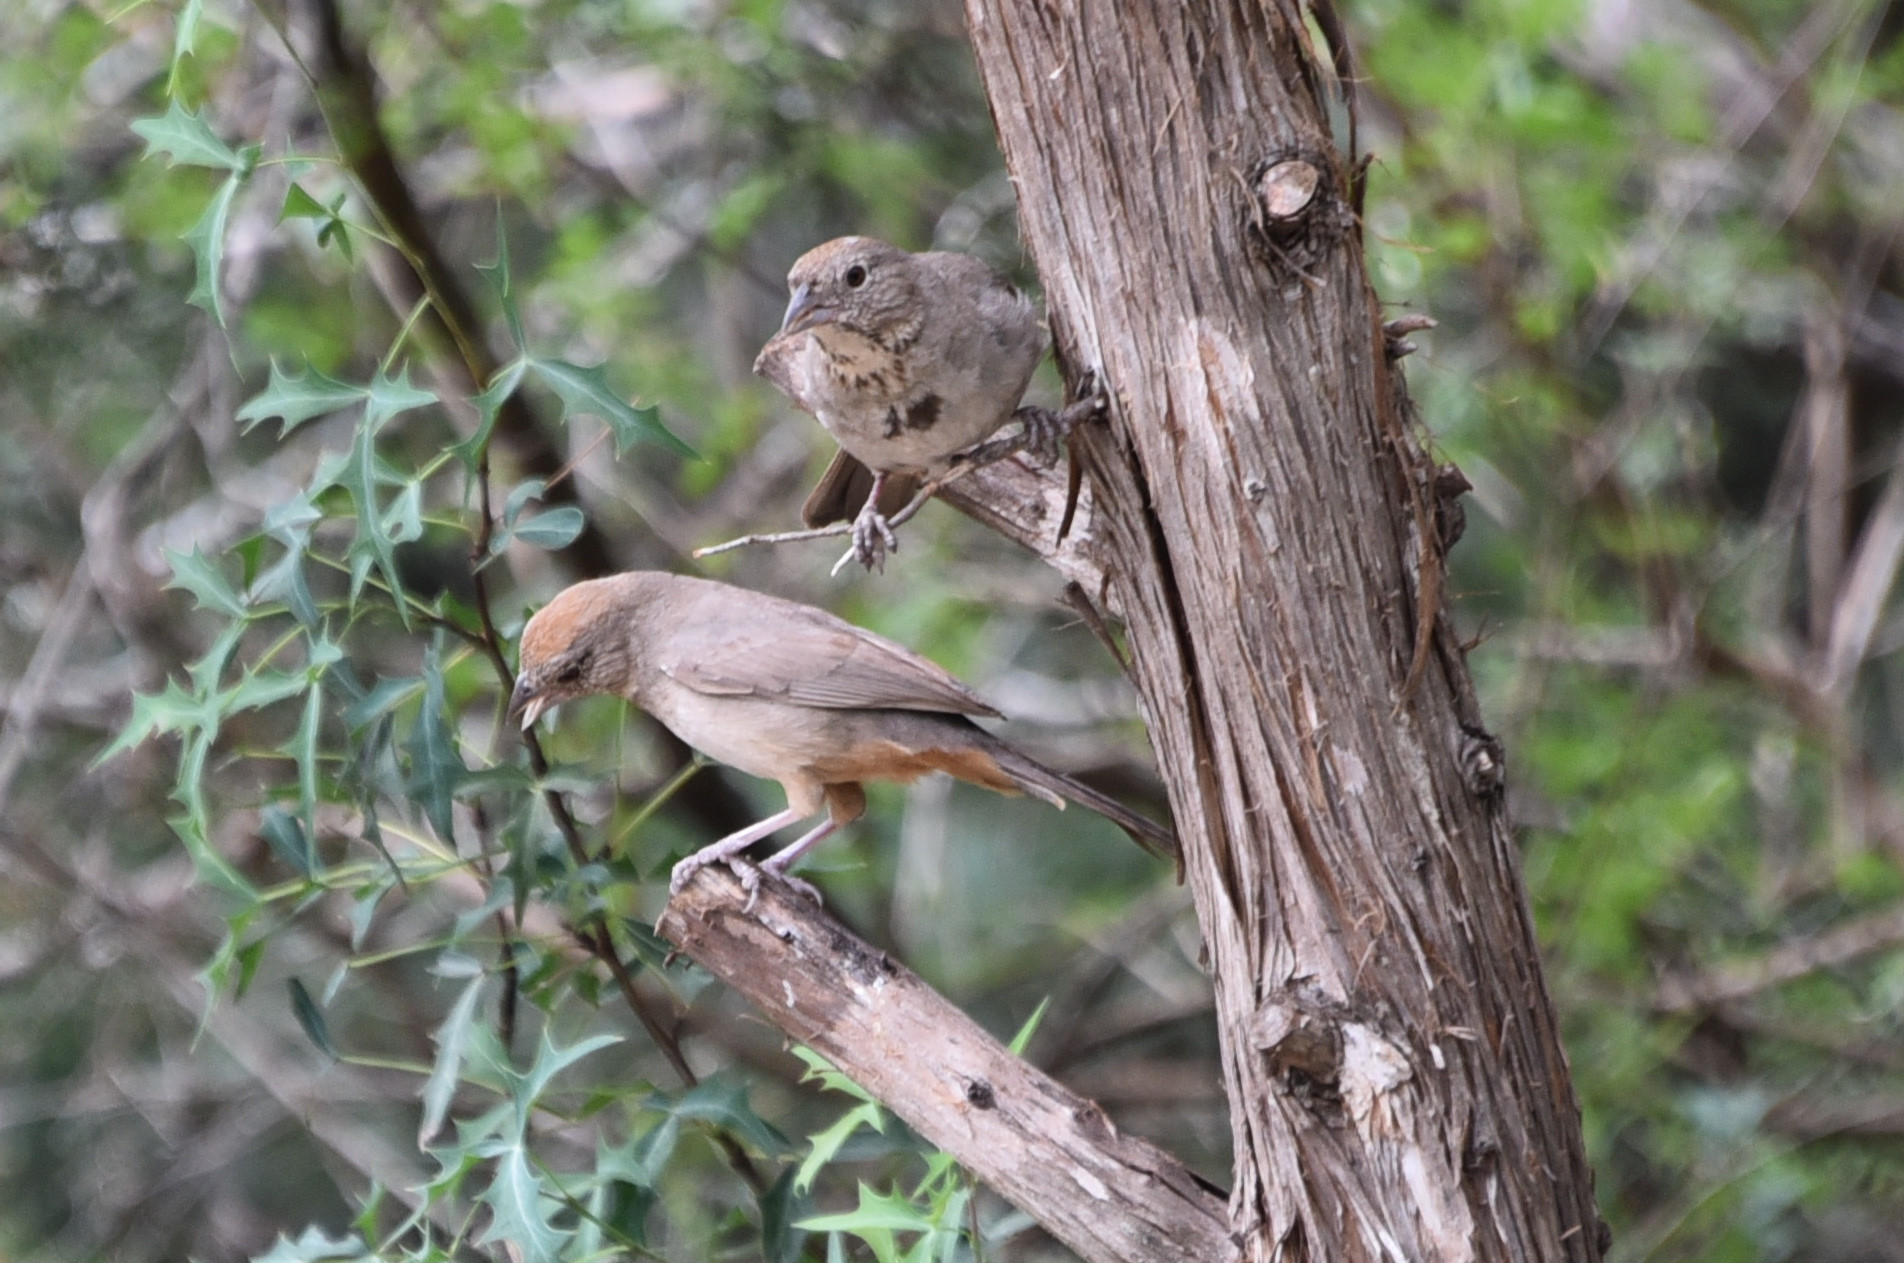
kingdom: Animalia
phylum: Chordata
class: Aves
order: Passeriformes
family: Passerellidae
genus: Melozone
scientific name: Melozone fusca
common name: Canyon towhee
